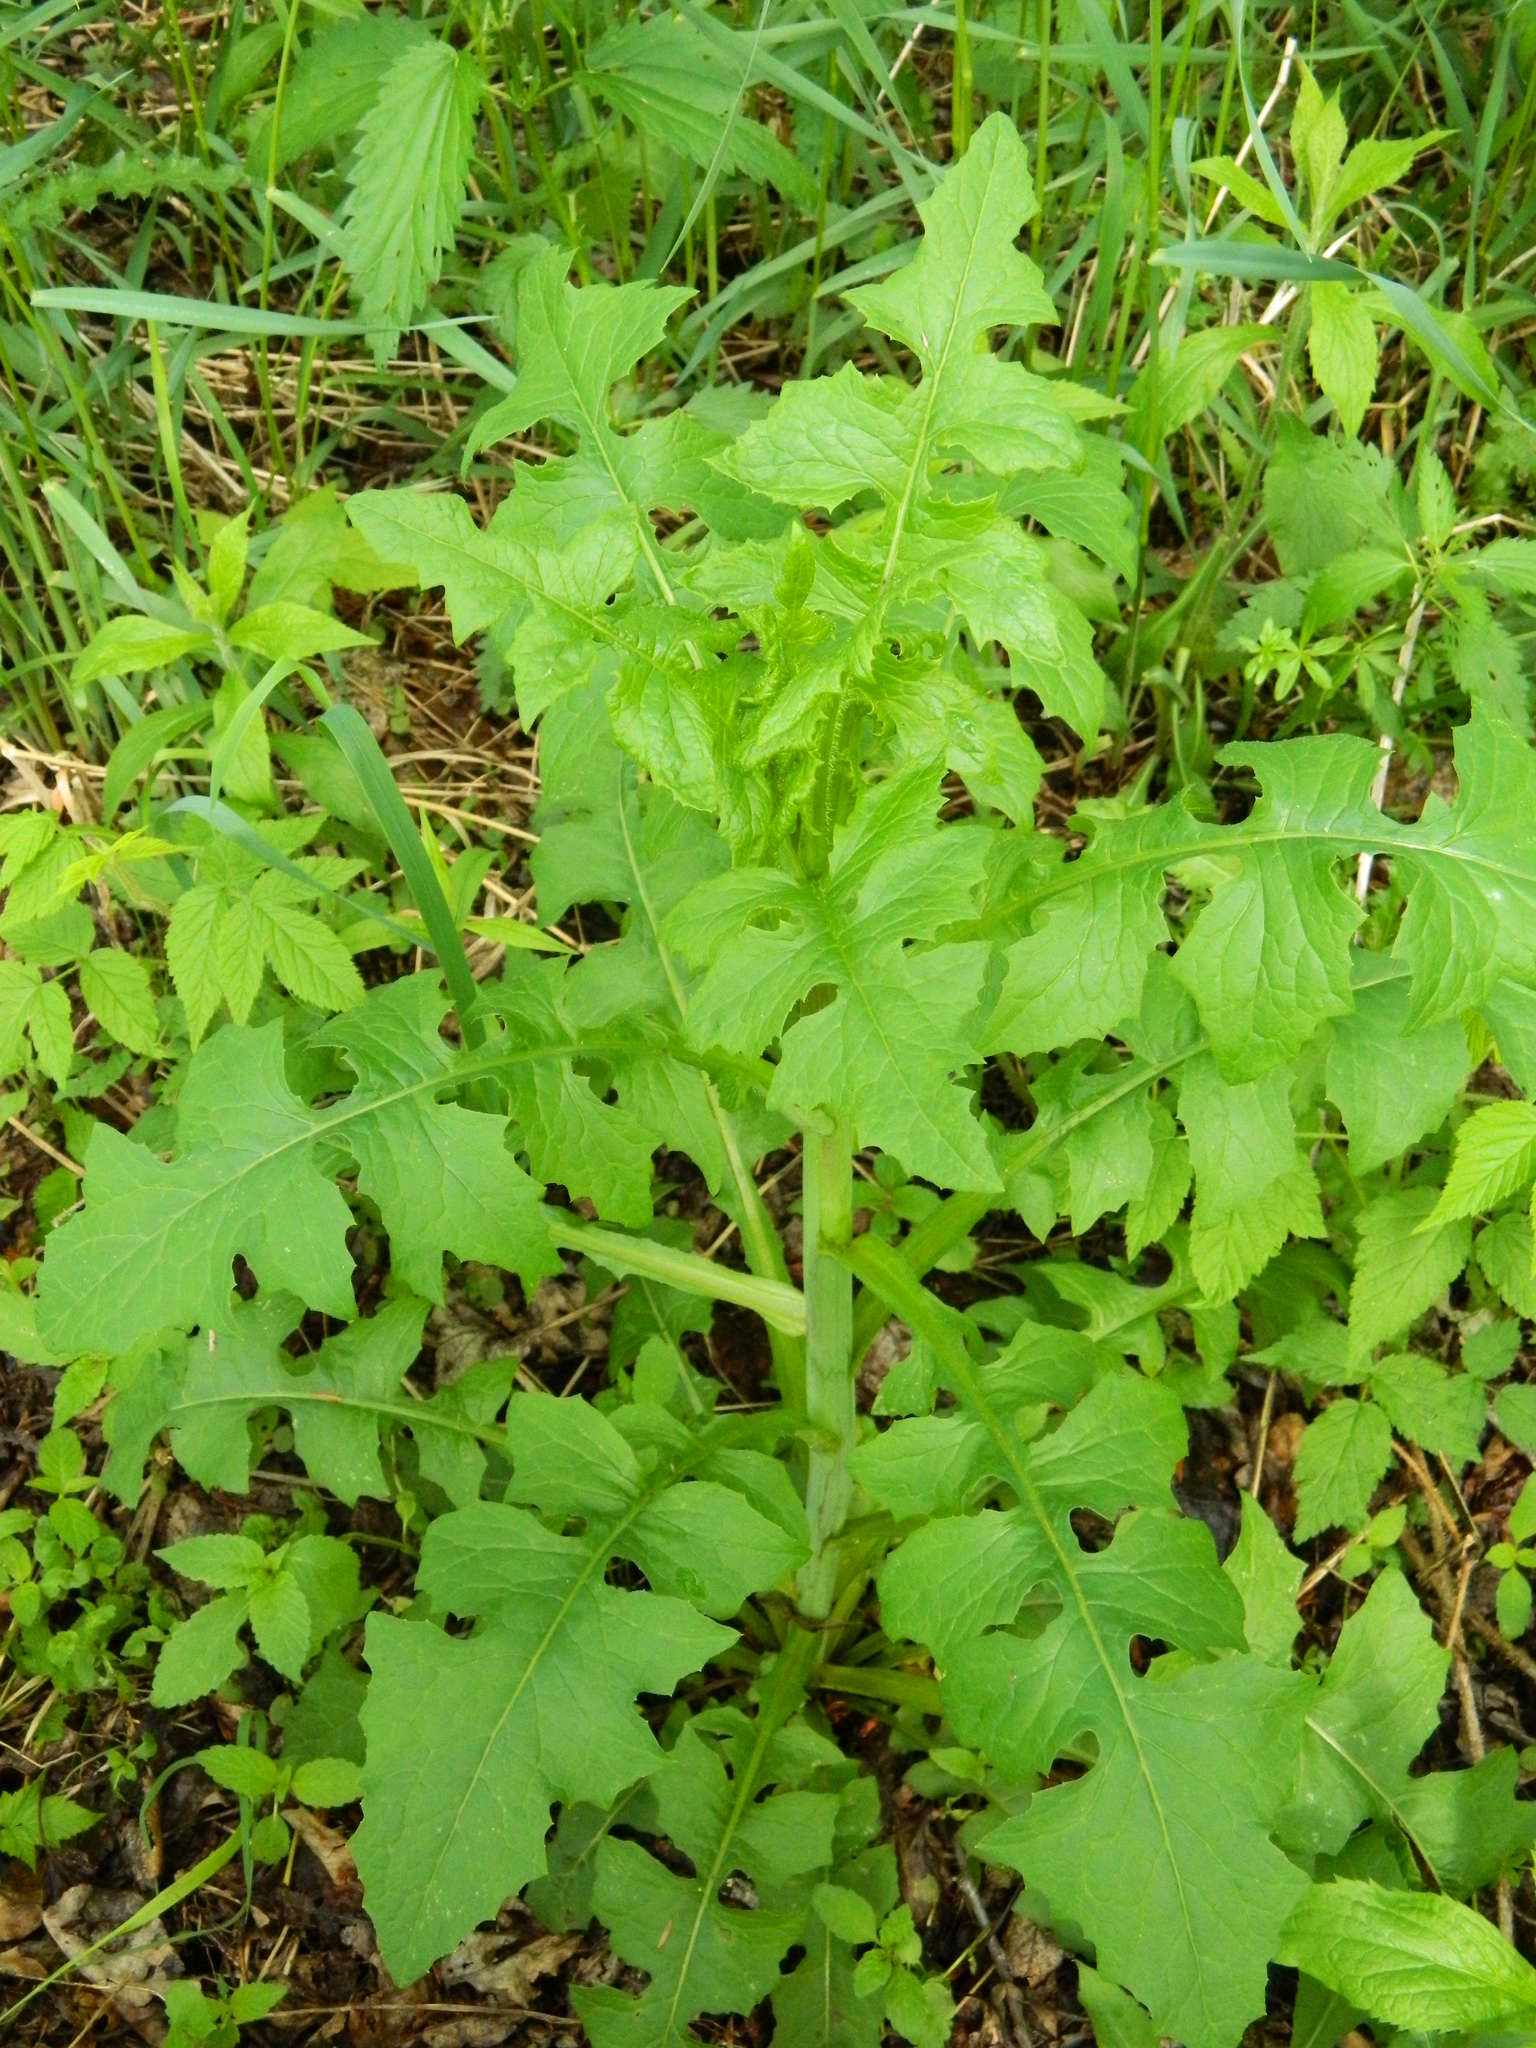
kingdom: Plantae
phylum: Tracheophyta
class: Magnoliopsida
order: Asterales
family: Asteraceae
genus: Lactuca
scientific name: Lactuca biennis
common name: Blue wood lettuce
